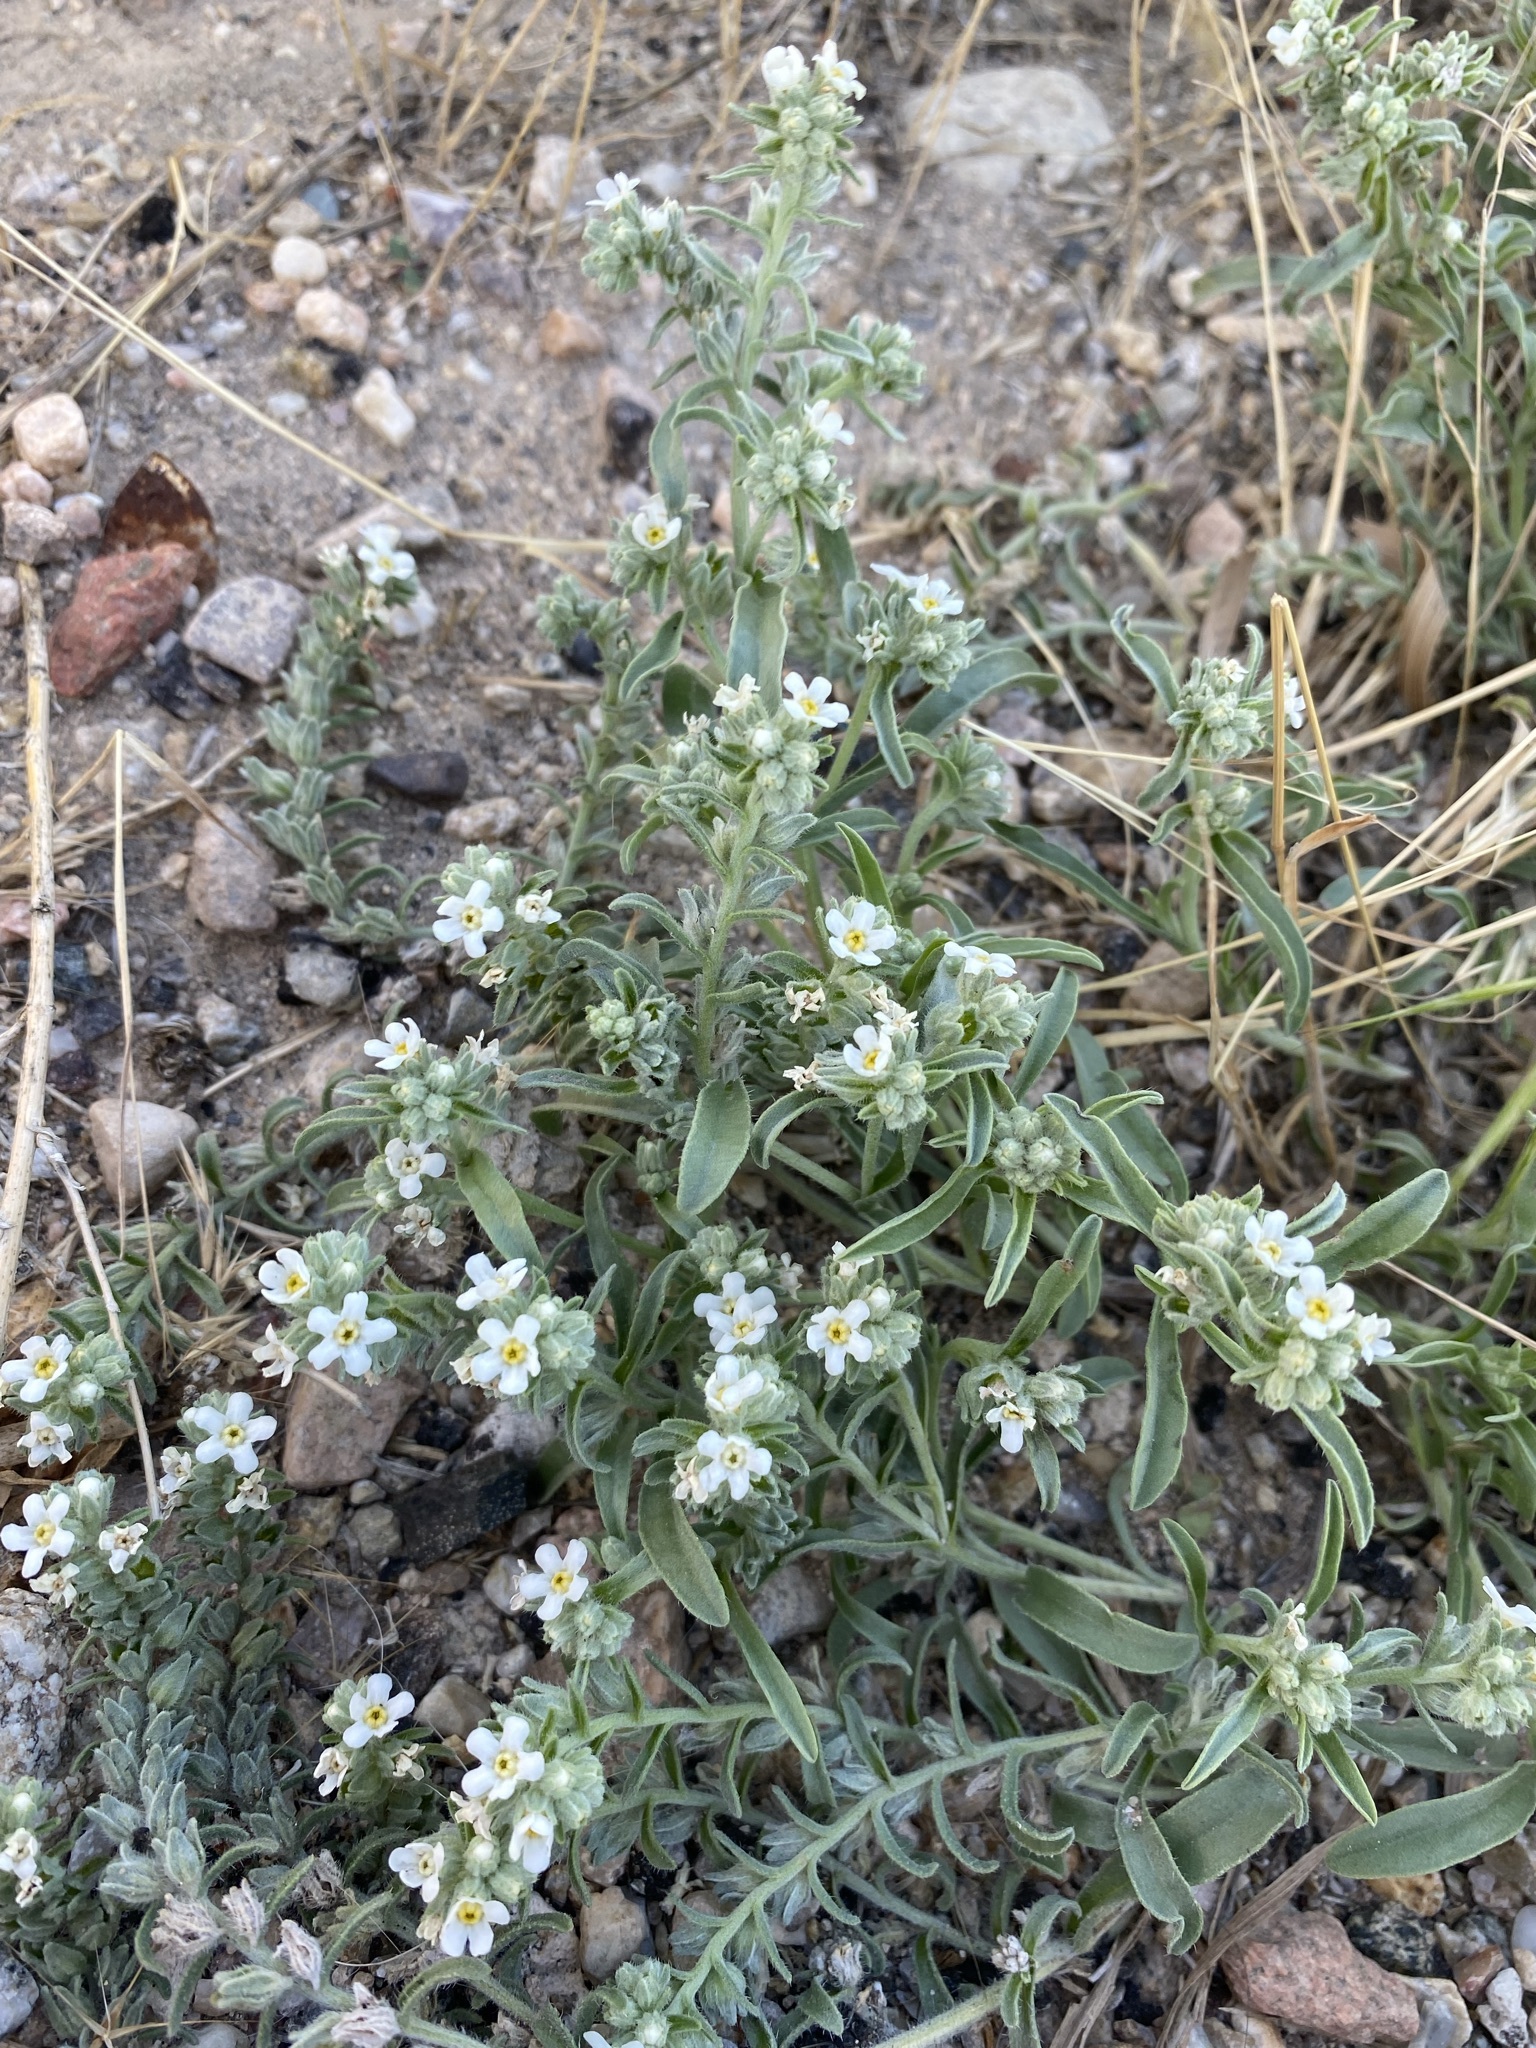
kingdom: Plantae
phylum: Tracheophyta
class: Magnoliopsida
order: Boraginales
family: Boraginaceae
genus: Oreocarya
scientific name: Oreocarya suffruticosa
